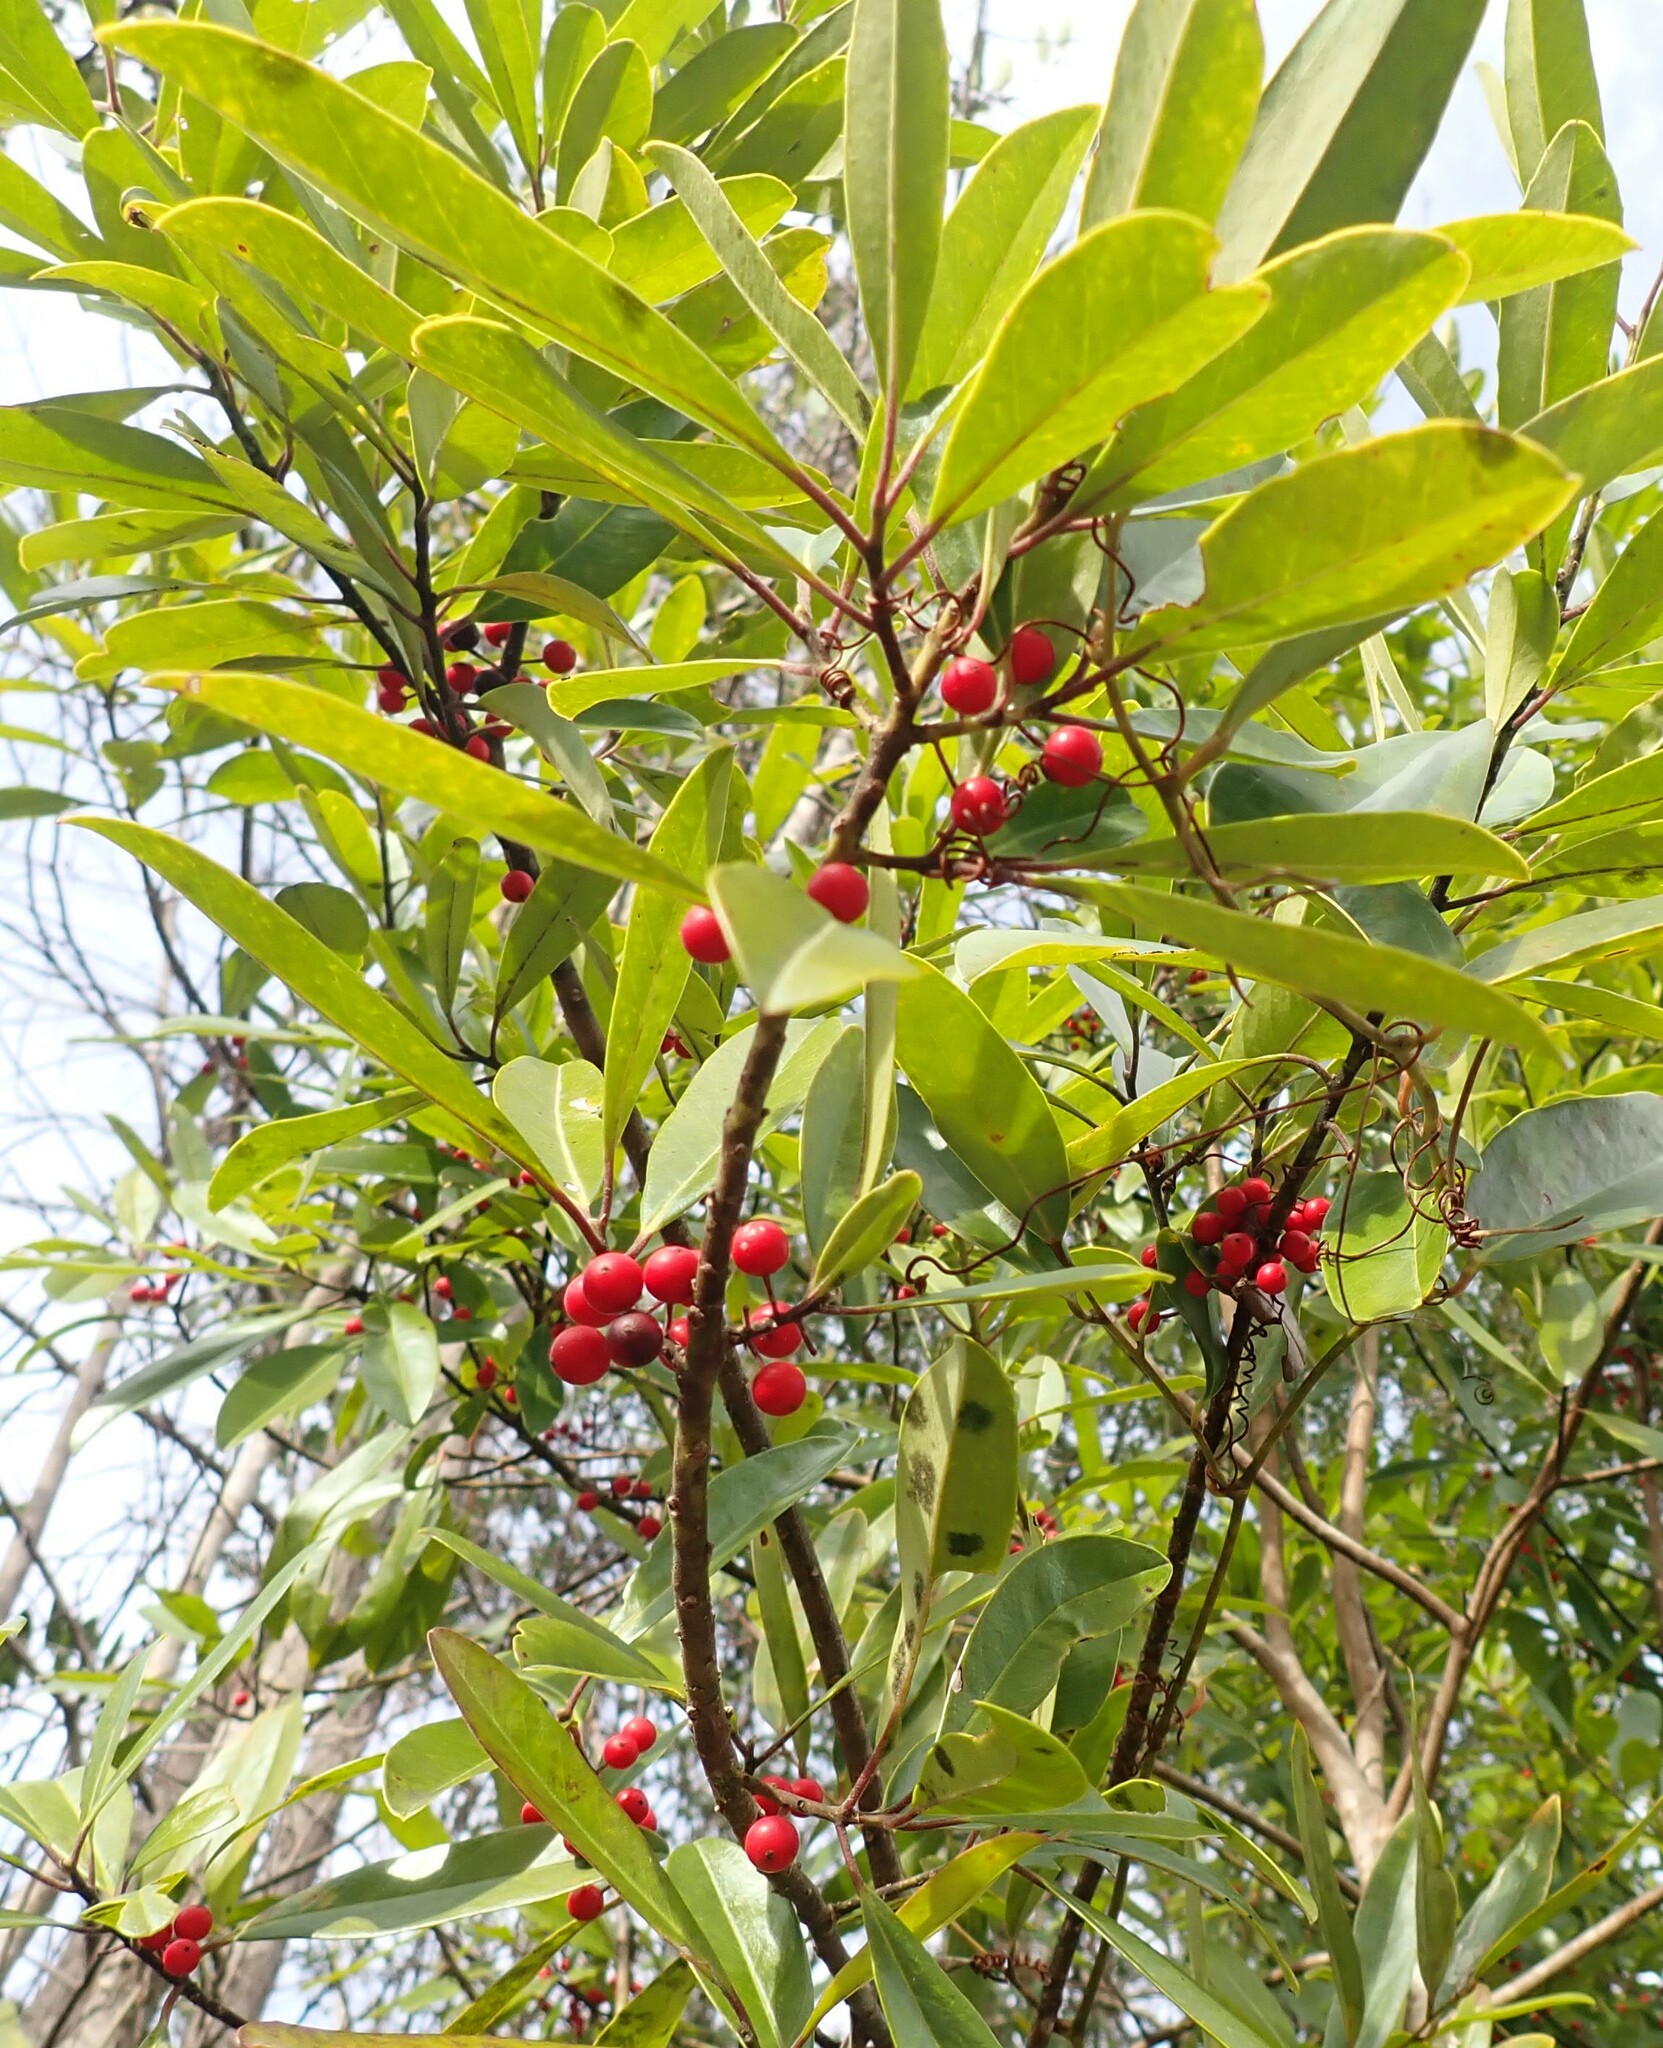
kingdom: Plantae
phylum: Tracheophyta
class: Magnoliopsida
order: Aquifoliales
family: Aquifoliaceae
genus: Ilex
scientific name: Ilex cassine
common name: Dahoon
